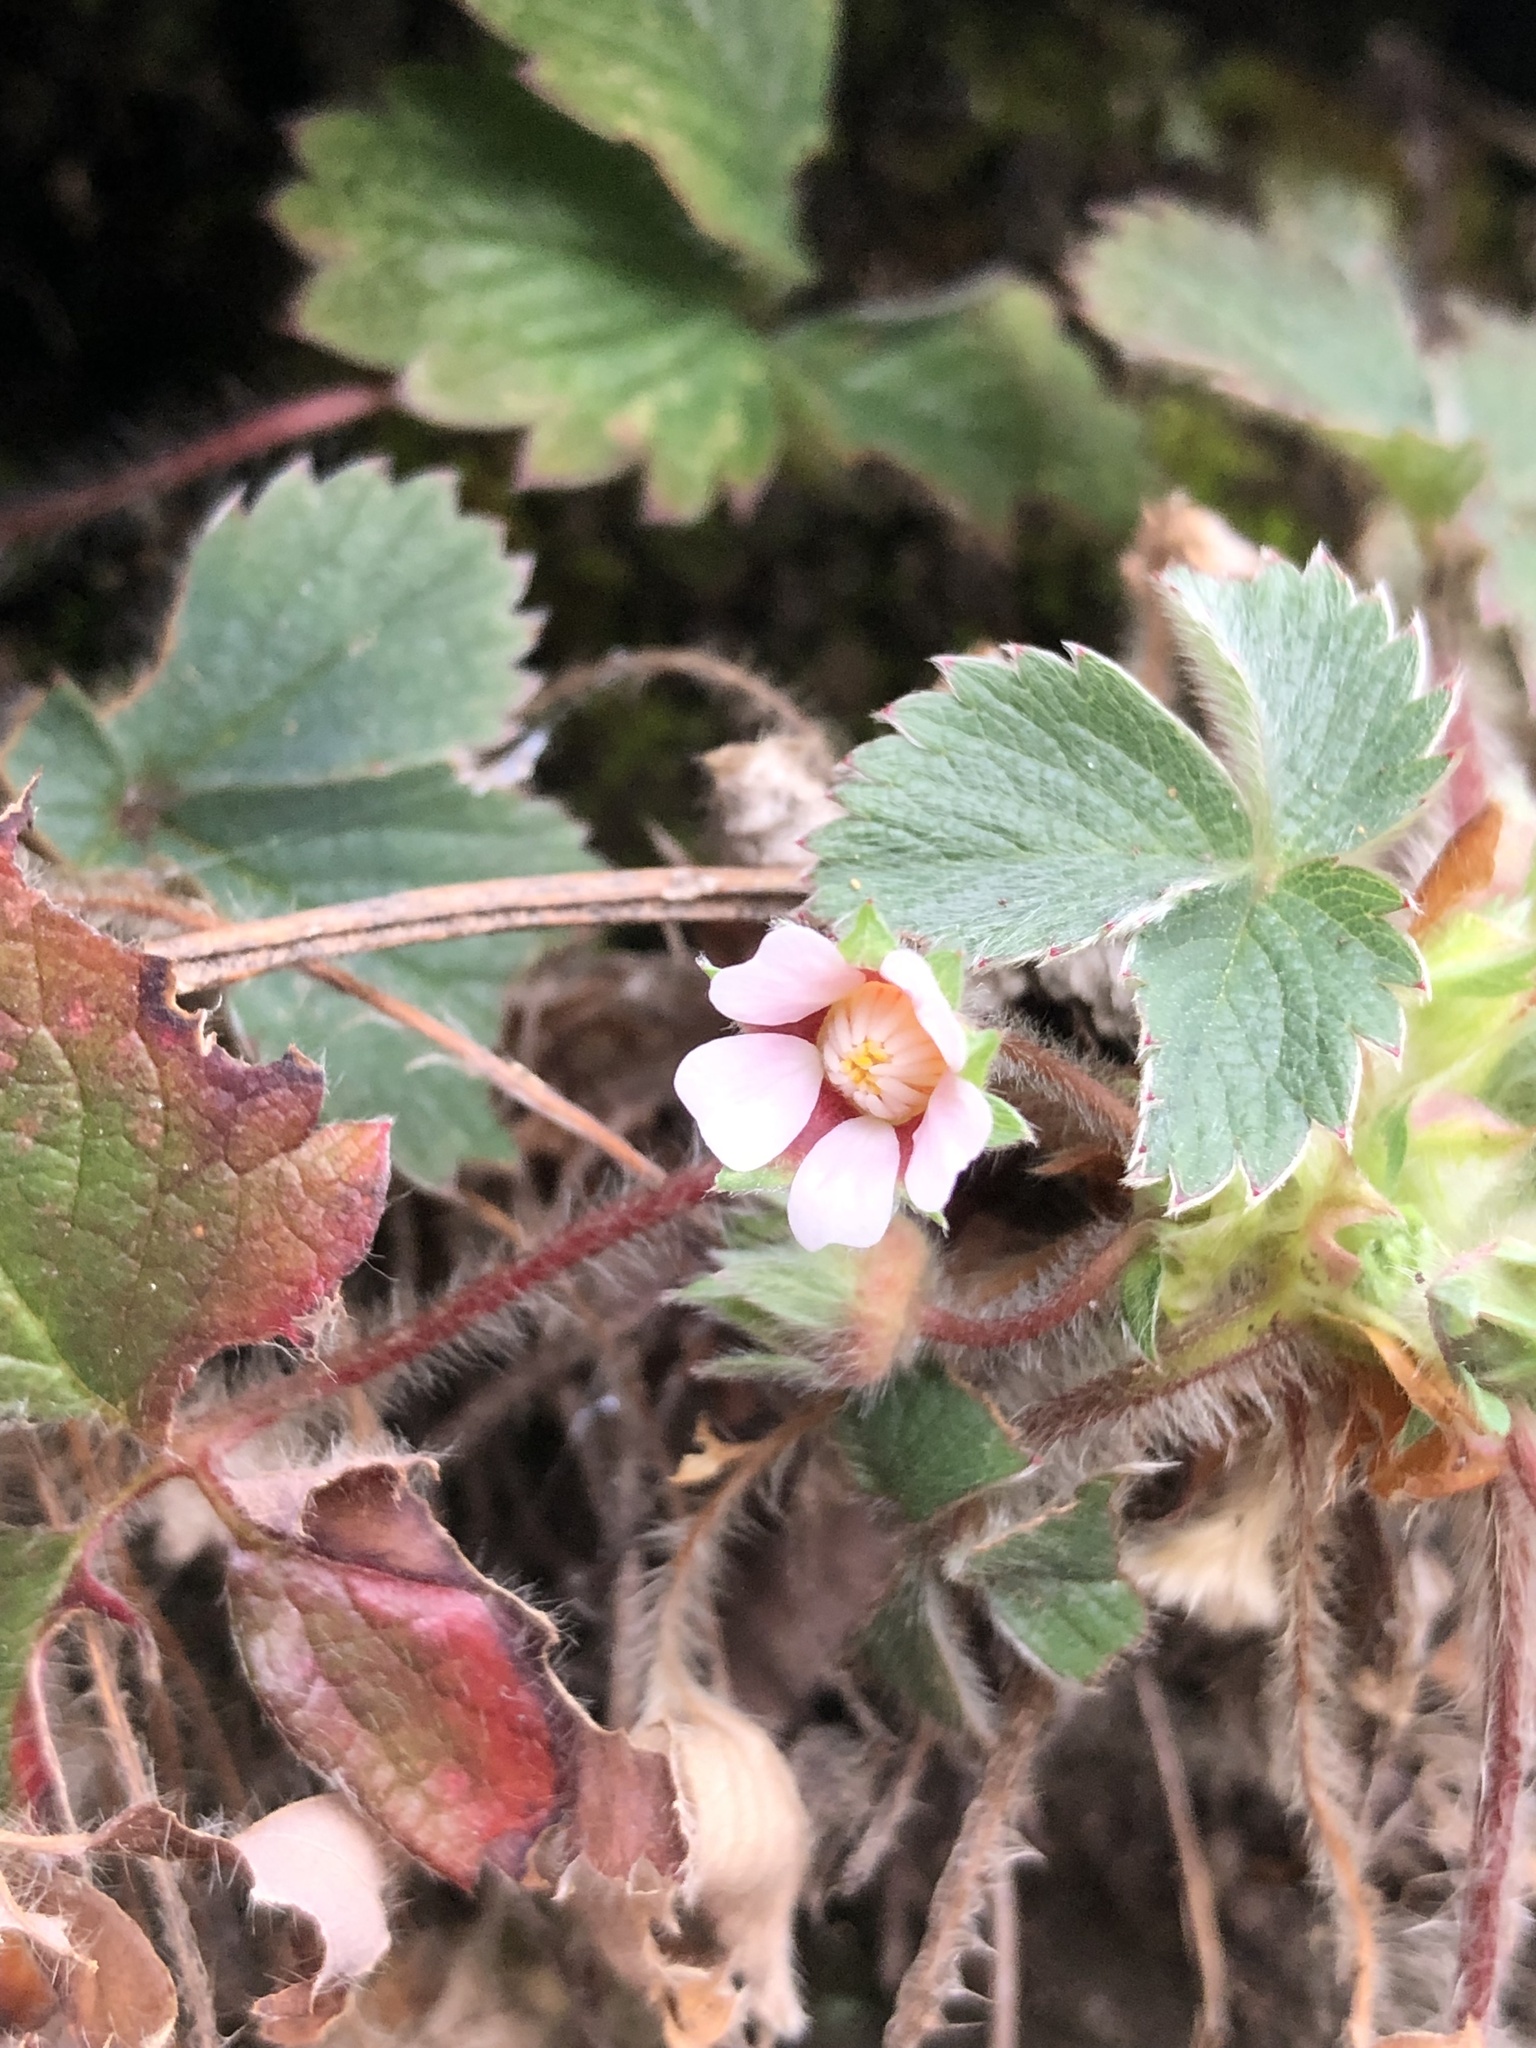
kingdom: Plantae
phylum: Tracheophyta
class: Magnoliopsida
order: Rosales
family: Rosaceae
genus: Potentilla
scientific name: Potentilla micrantha
